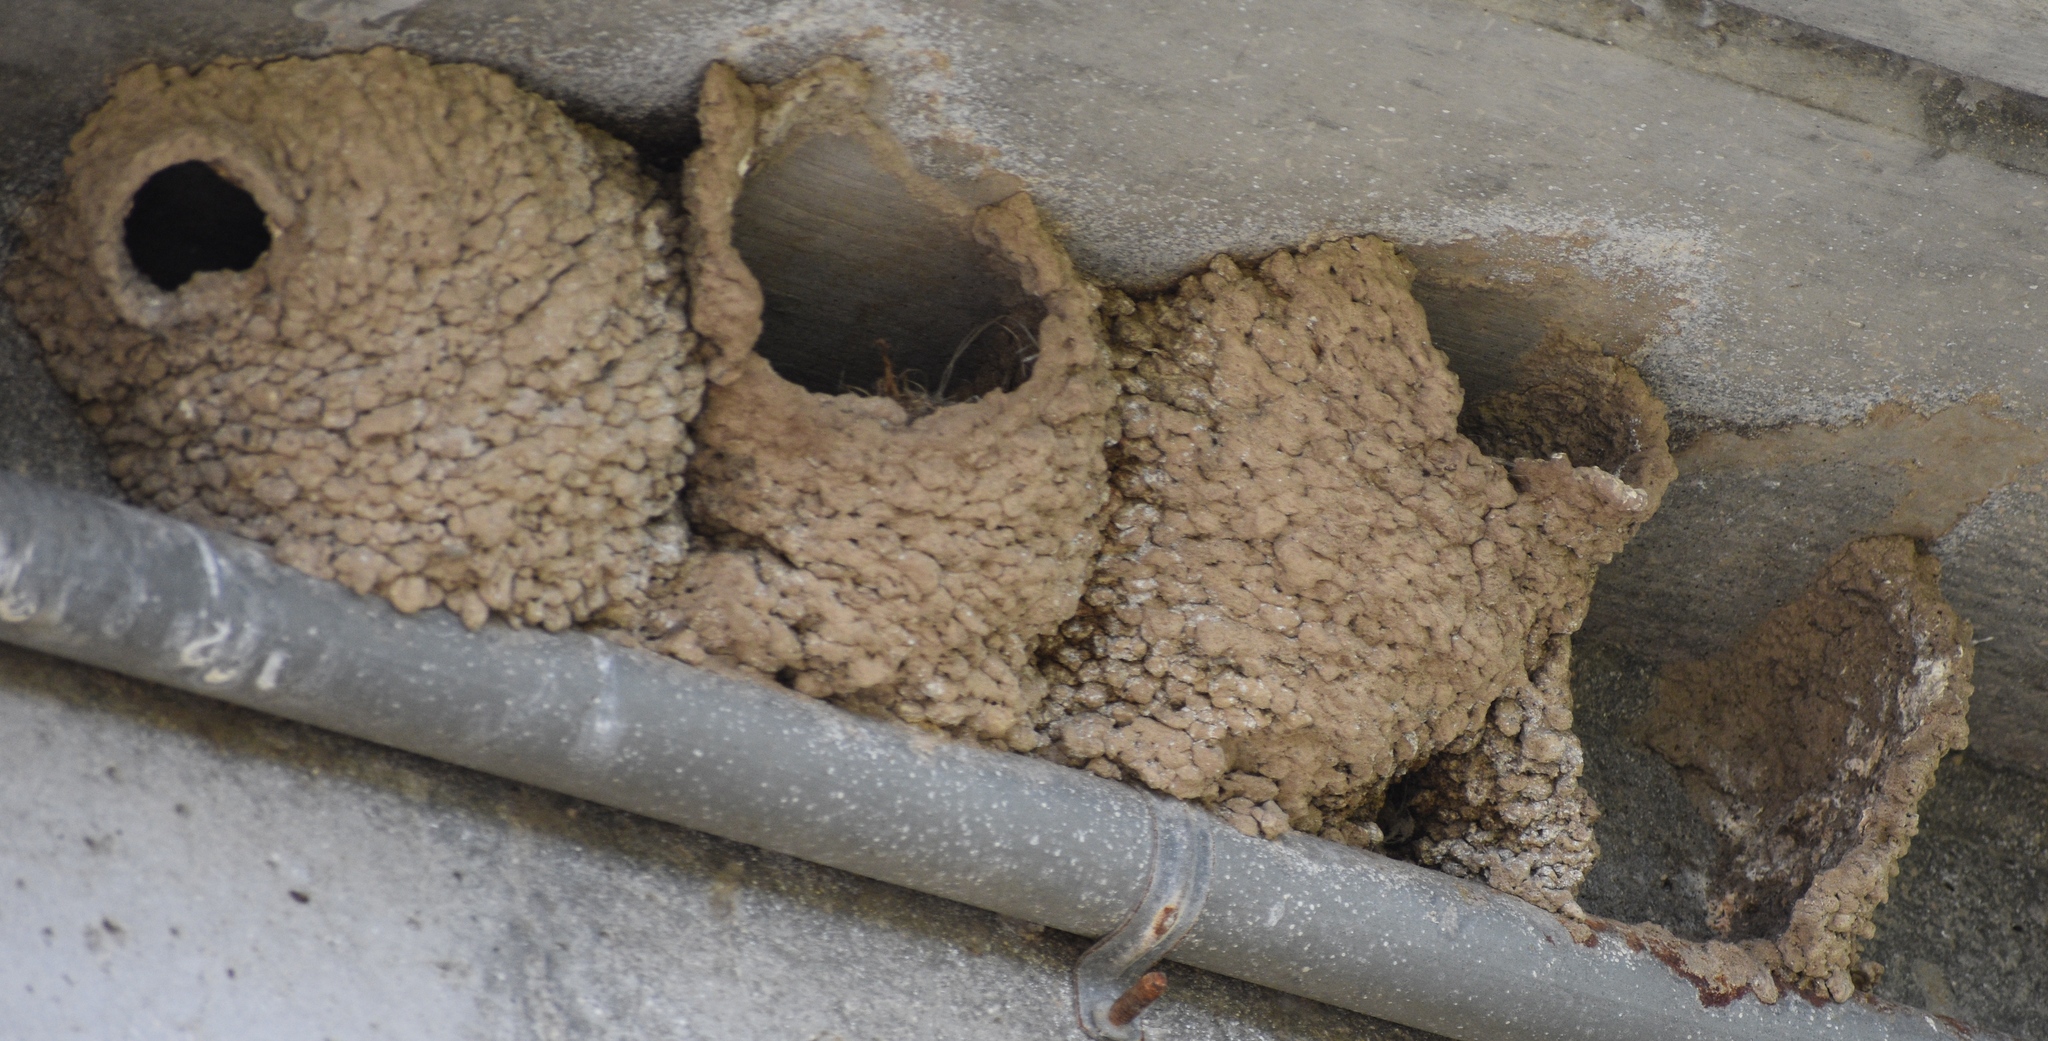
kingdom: Animalia
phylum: Chordata
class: Aves
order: Passeriformes
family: Hirundinidae
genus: Petrochelidon
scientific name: Petrochelidon pyrrhonota
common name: American cliff swallow
